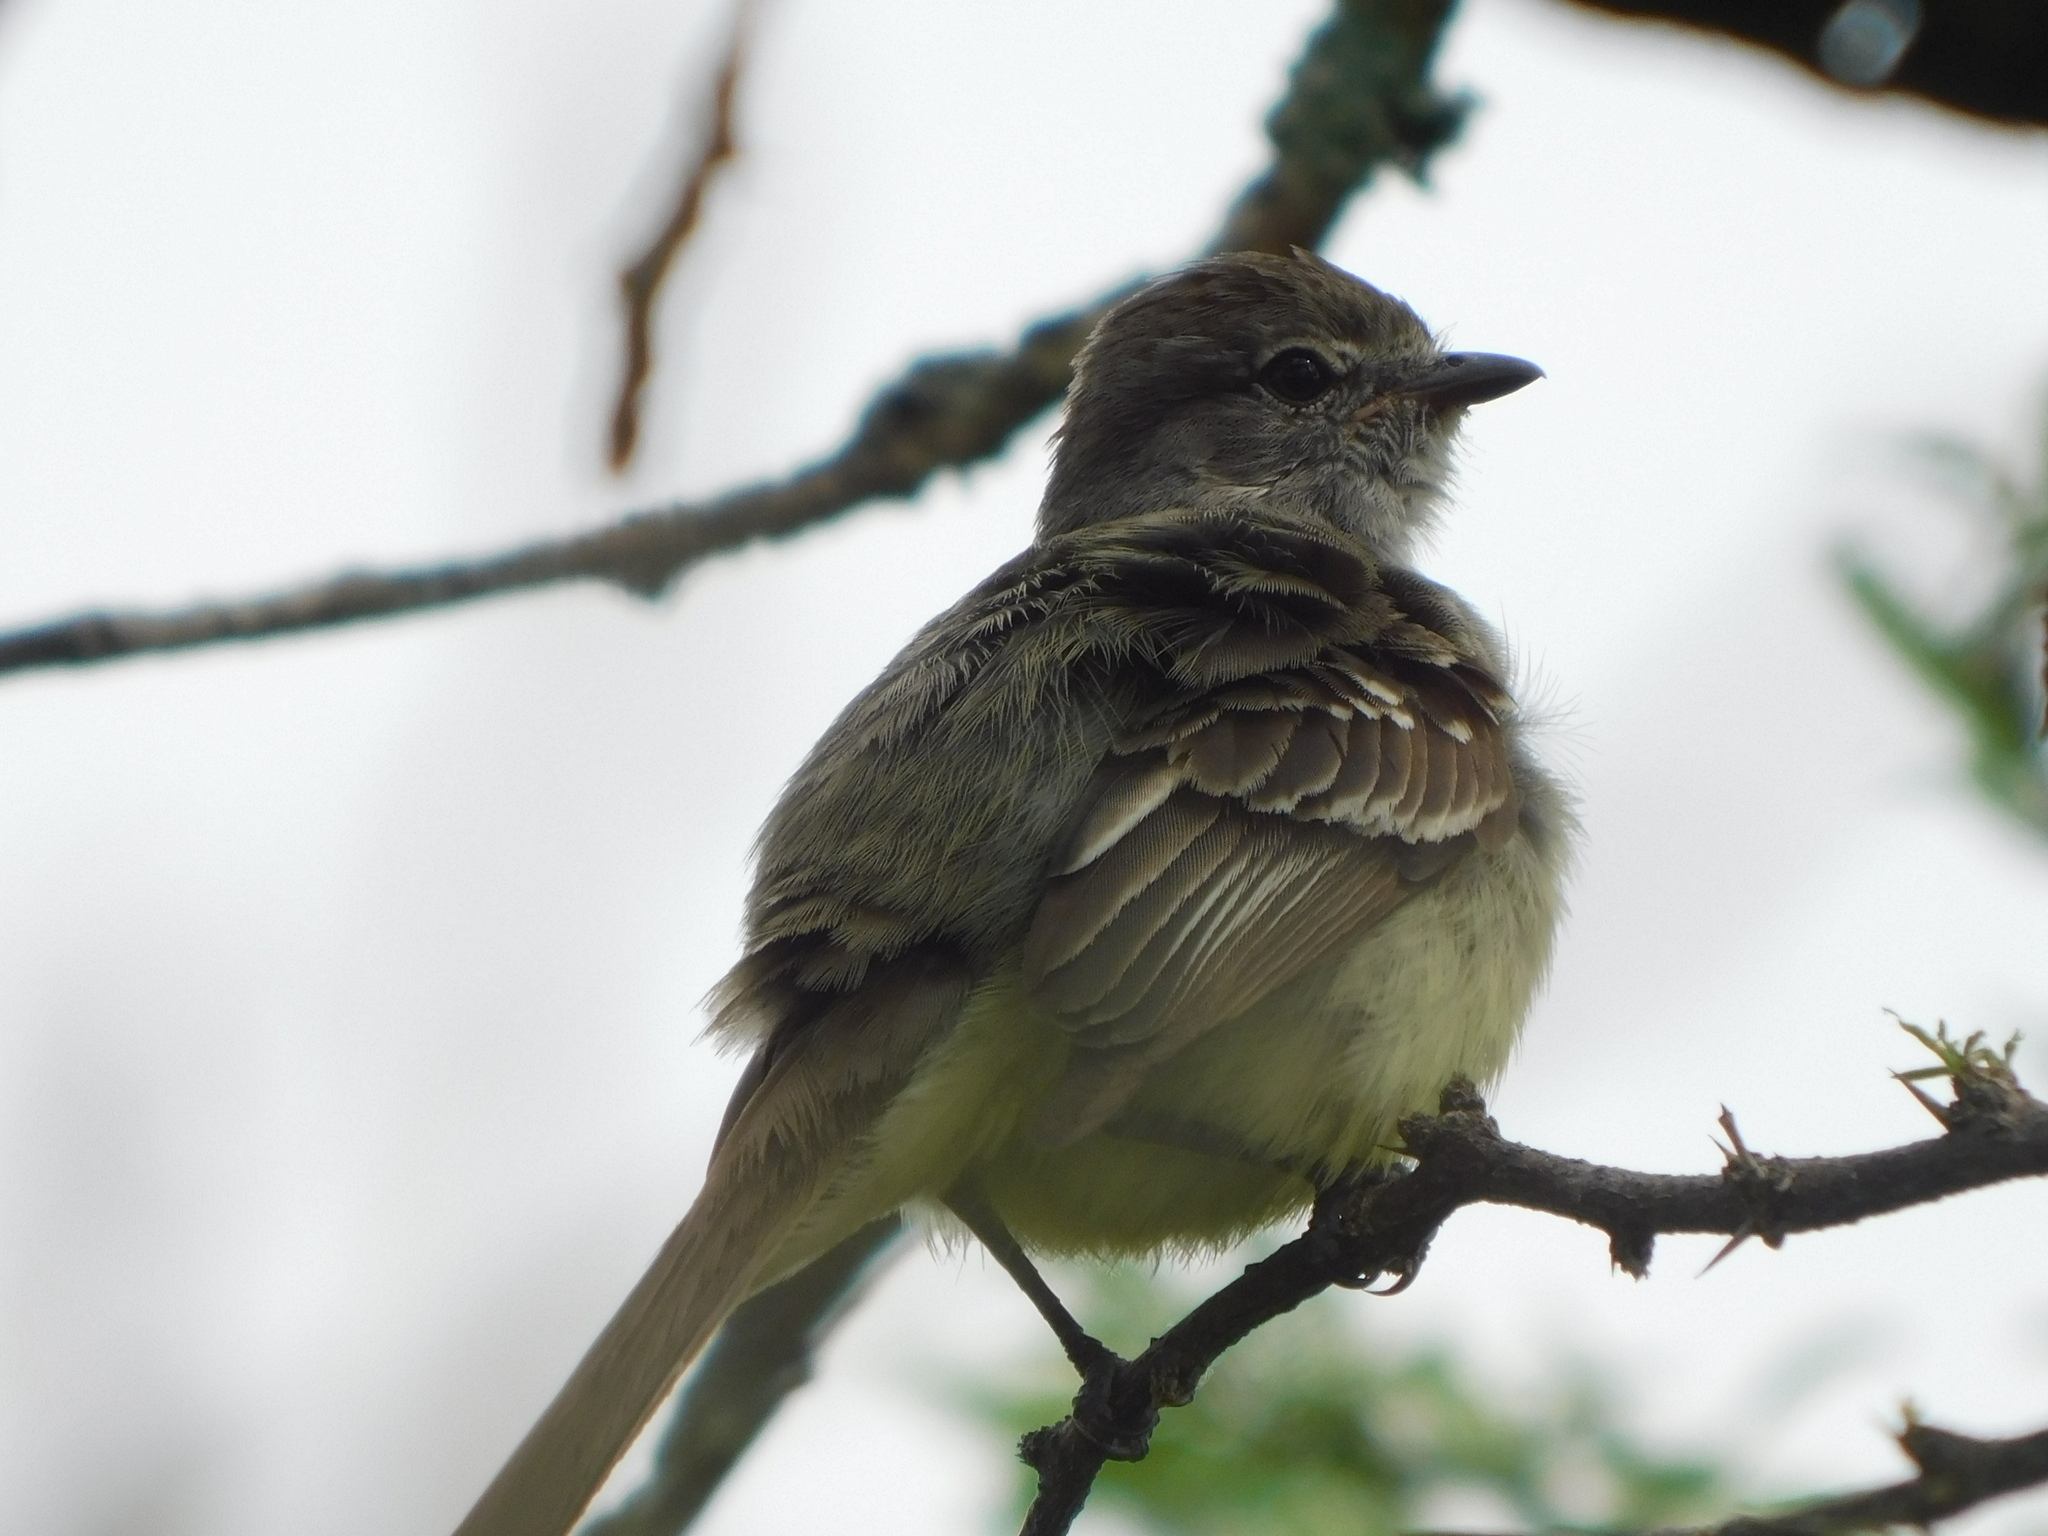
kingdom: Animalia
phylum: Chordata
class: Aves
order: Passeriformes
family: Tyrannidae
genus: Sublegatus
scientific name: Sublegatus modestus
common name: Southern scrub flycatcher
